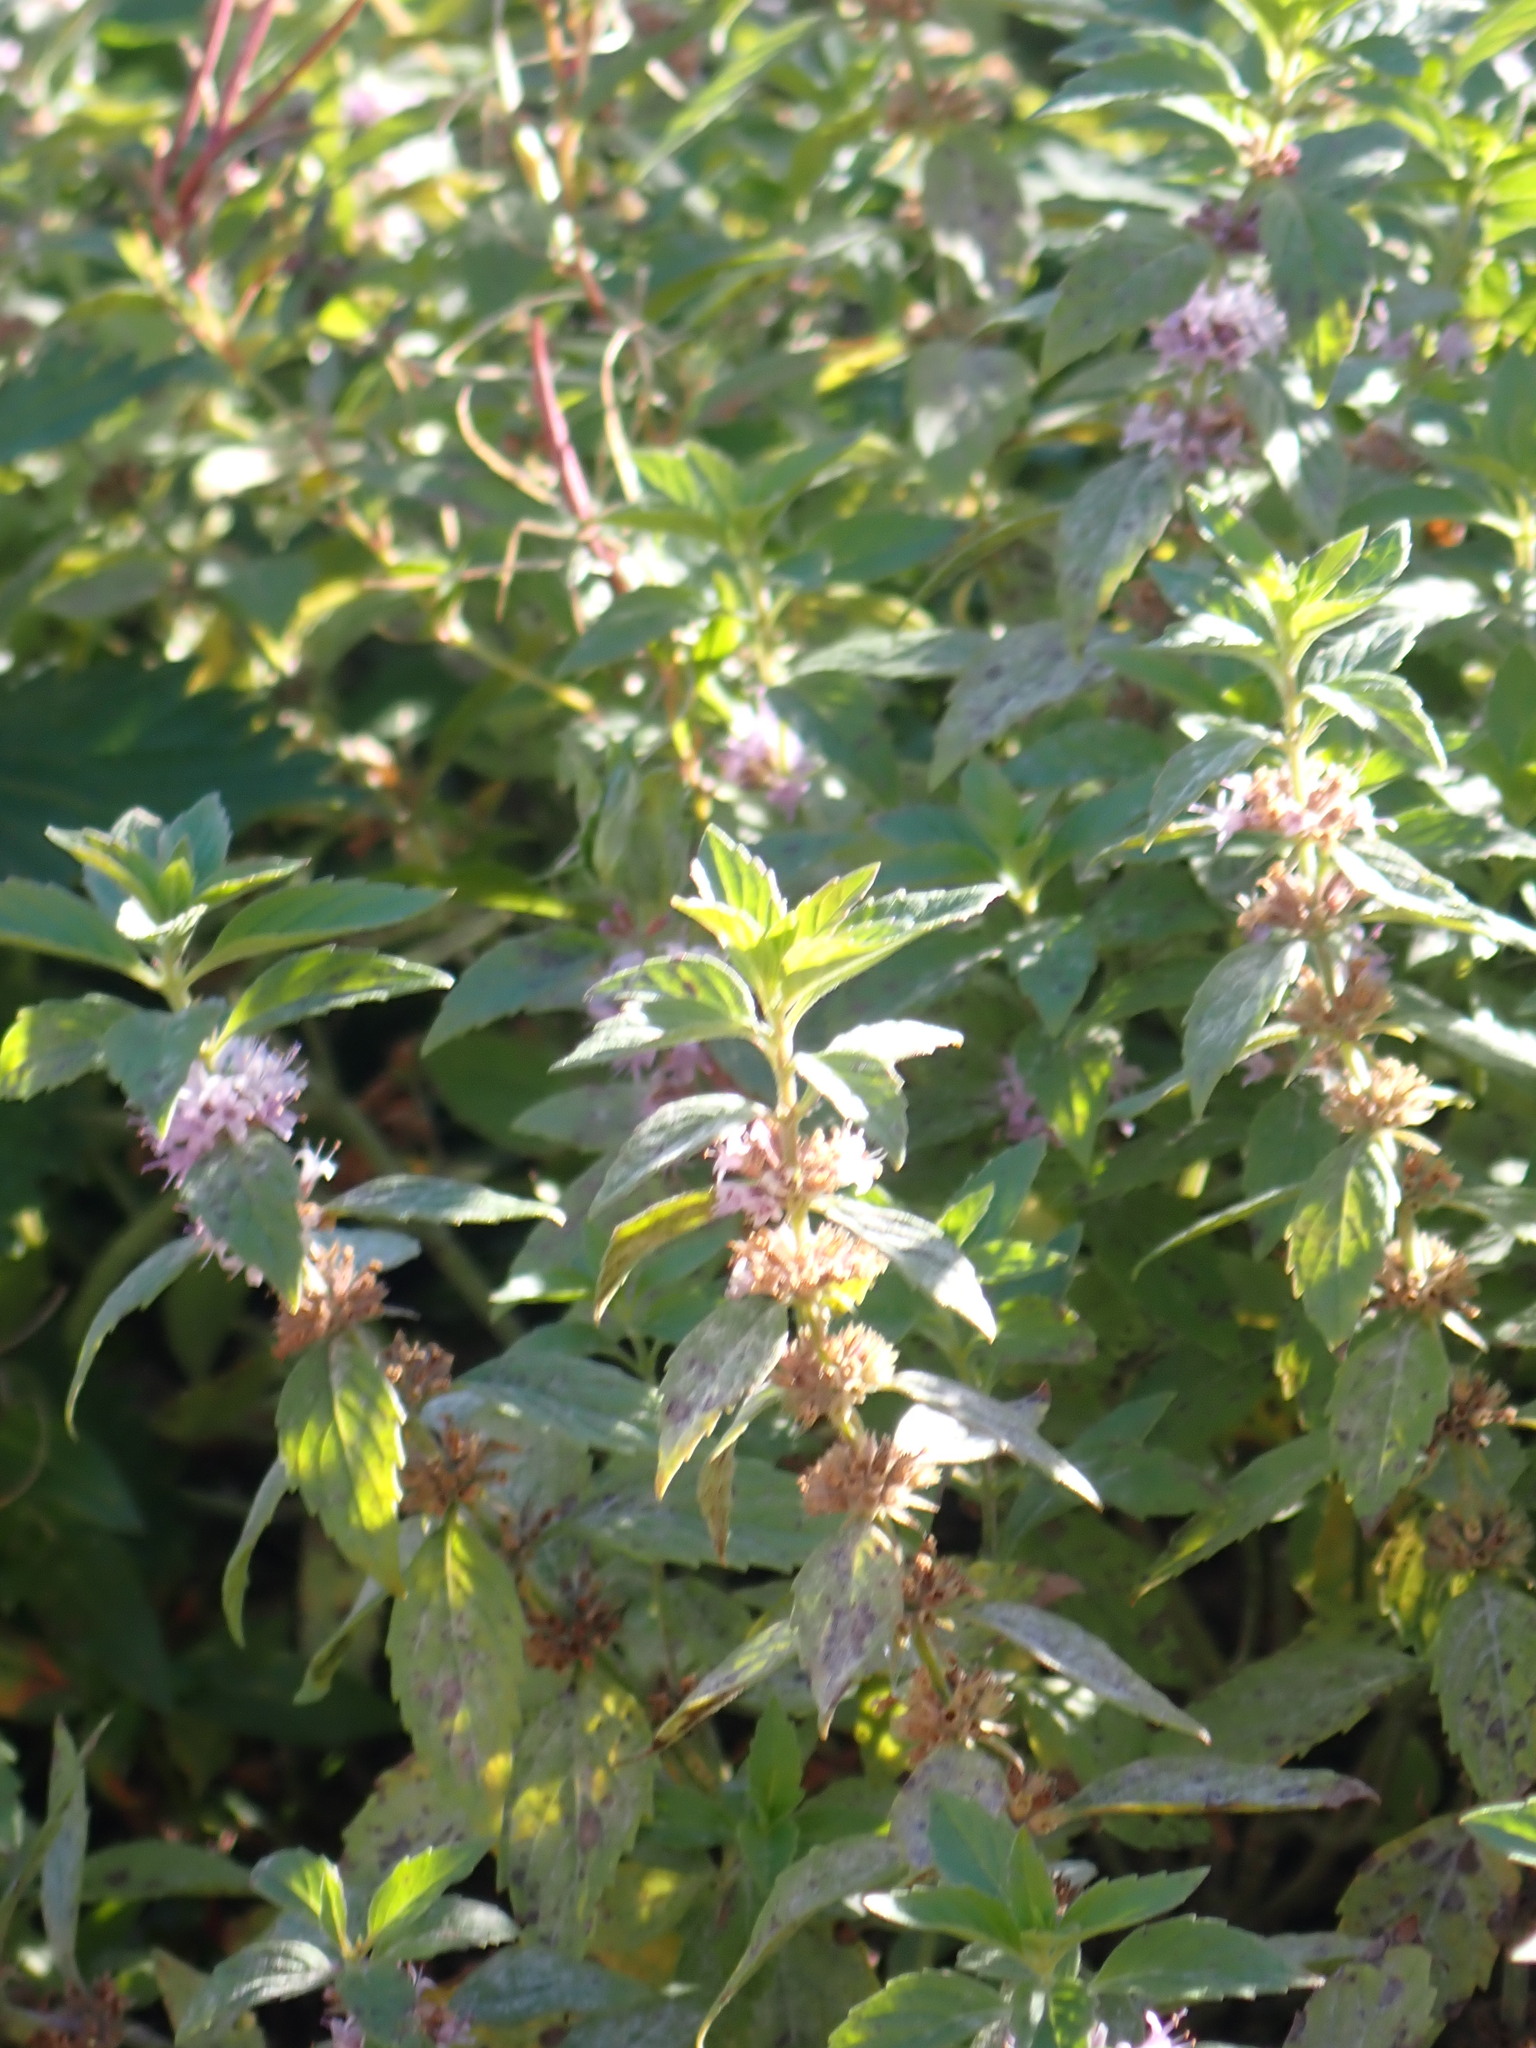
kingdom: Plantae
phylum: Tracheophyta
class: Magnoliopsida
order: Lamiales
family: Lamiaceae
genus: Mentha
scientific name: Mentha canadensis
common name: American corn mint
